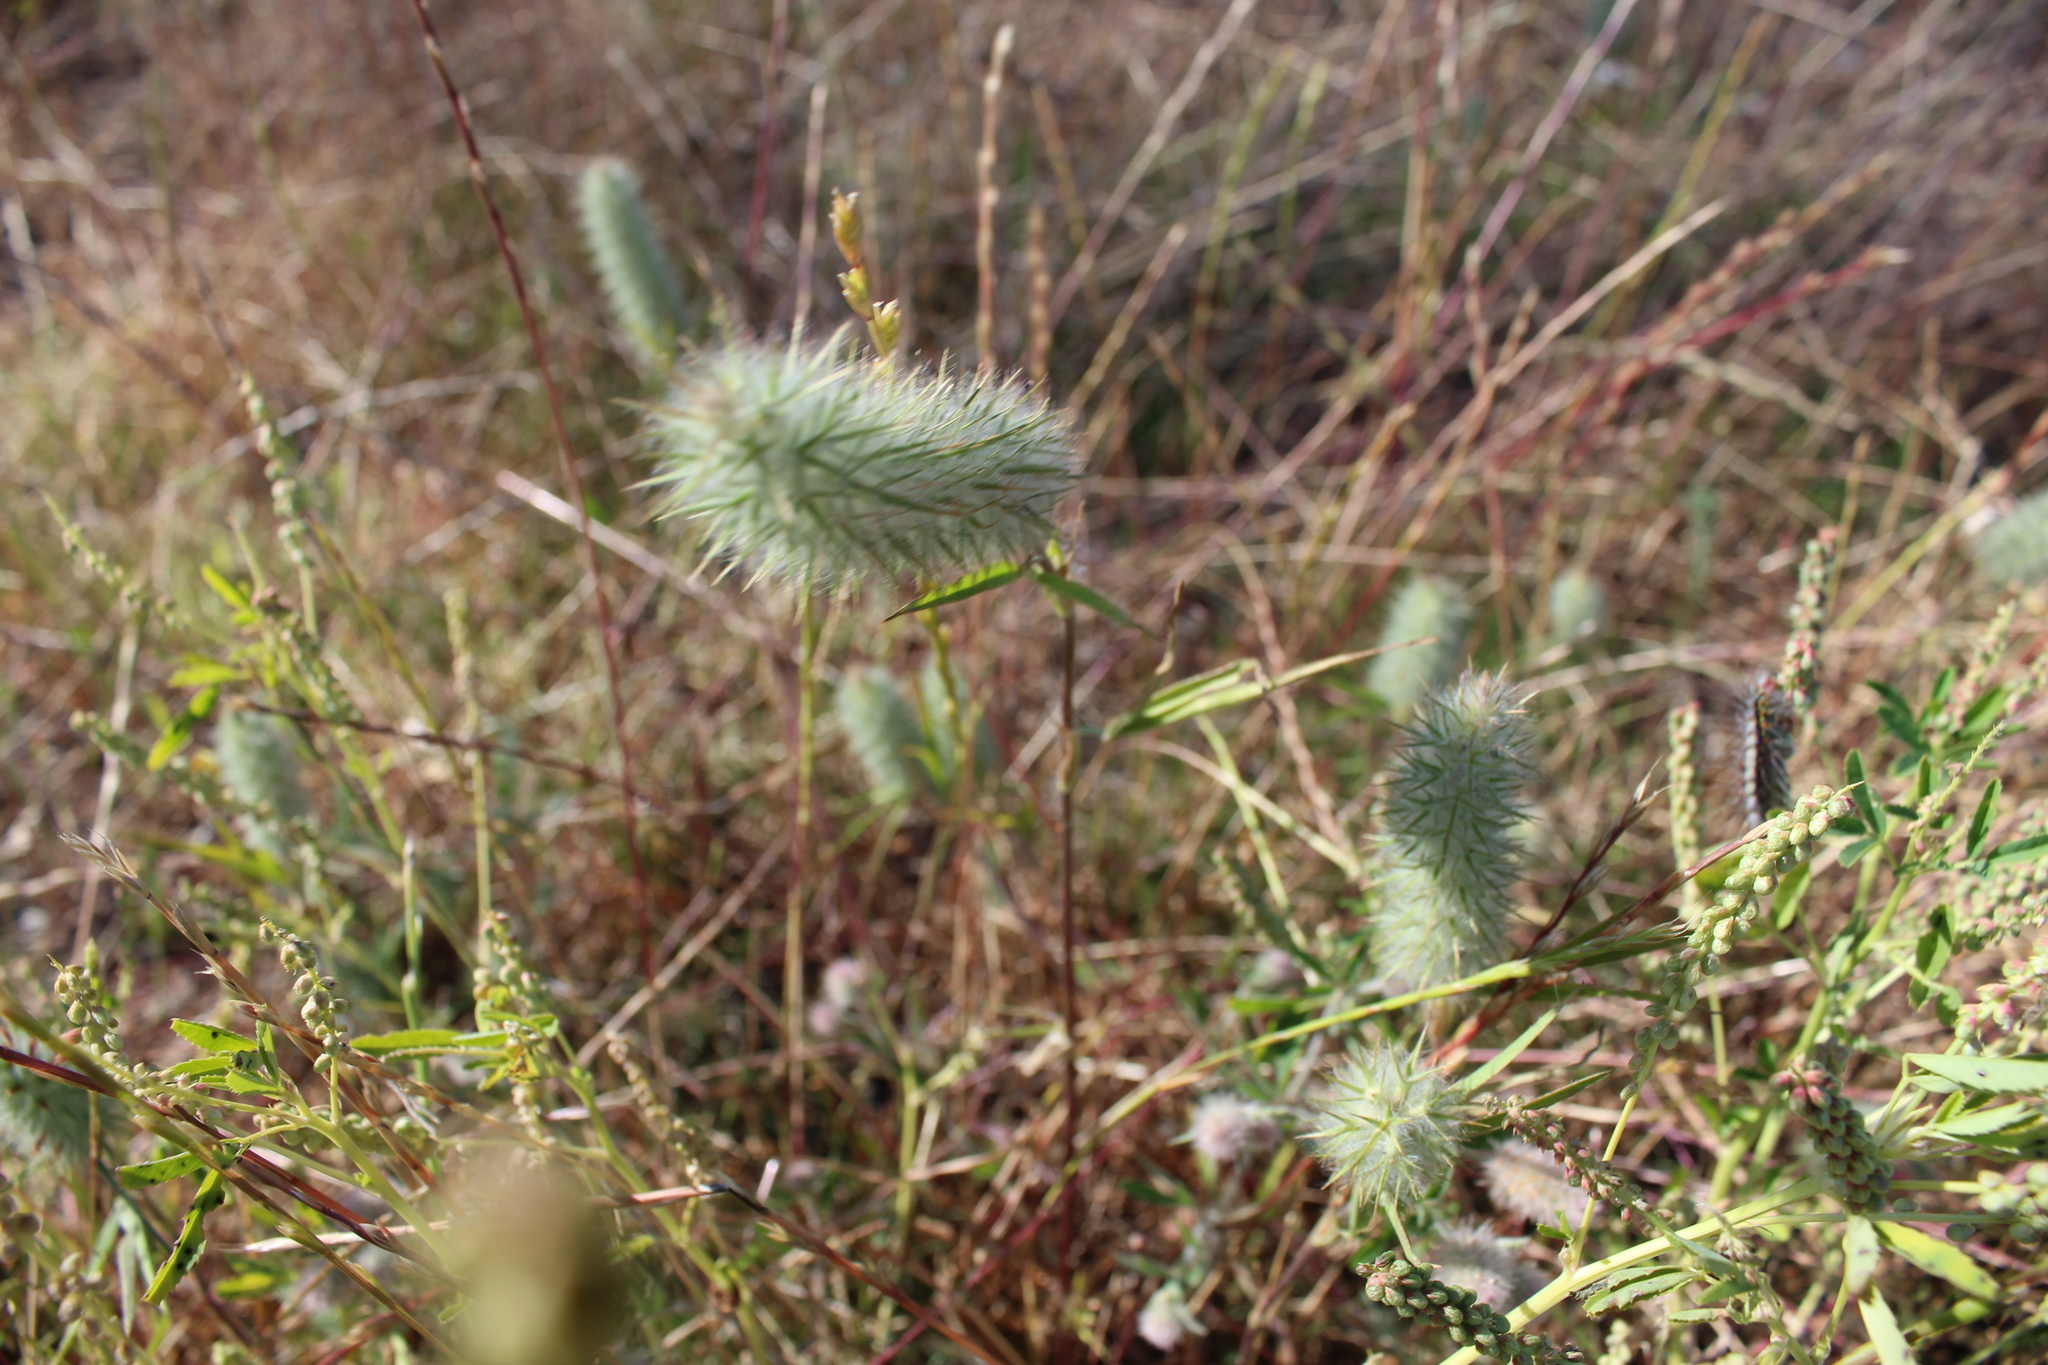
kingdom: Plantae
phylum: Tracheophyta
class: Magnoliopsida
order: Fabales
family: Fabaceae
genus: Trifolium
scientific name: Trifolium angustifolium
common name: Narrow clover
